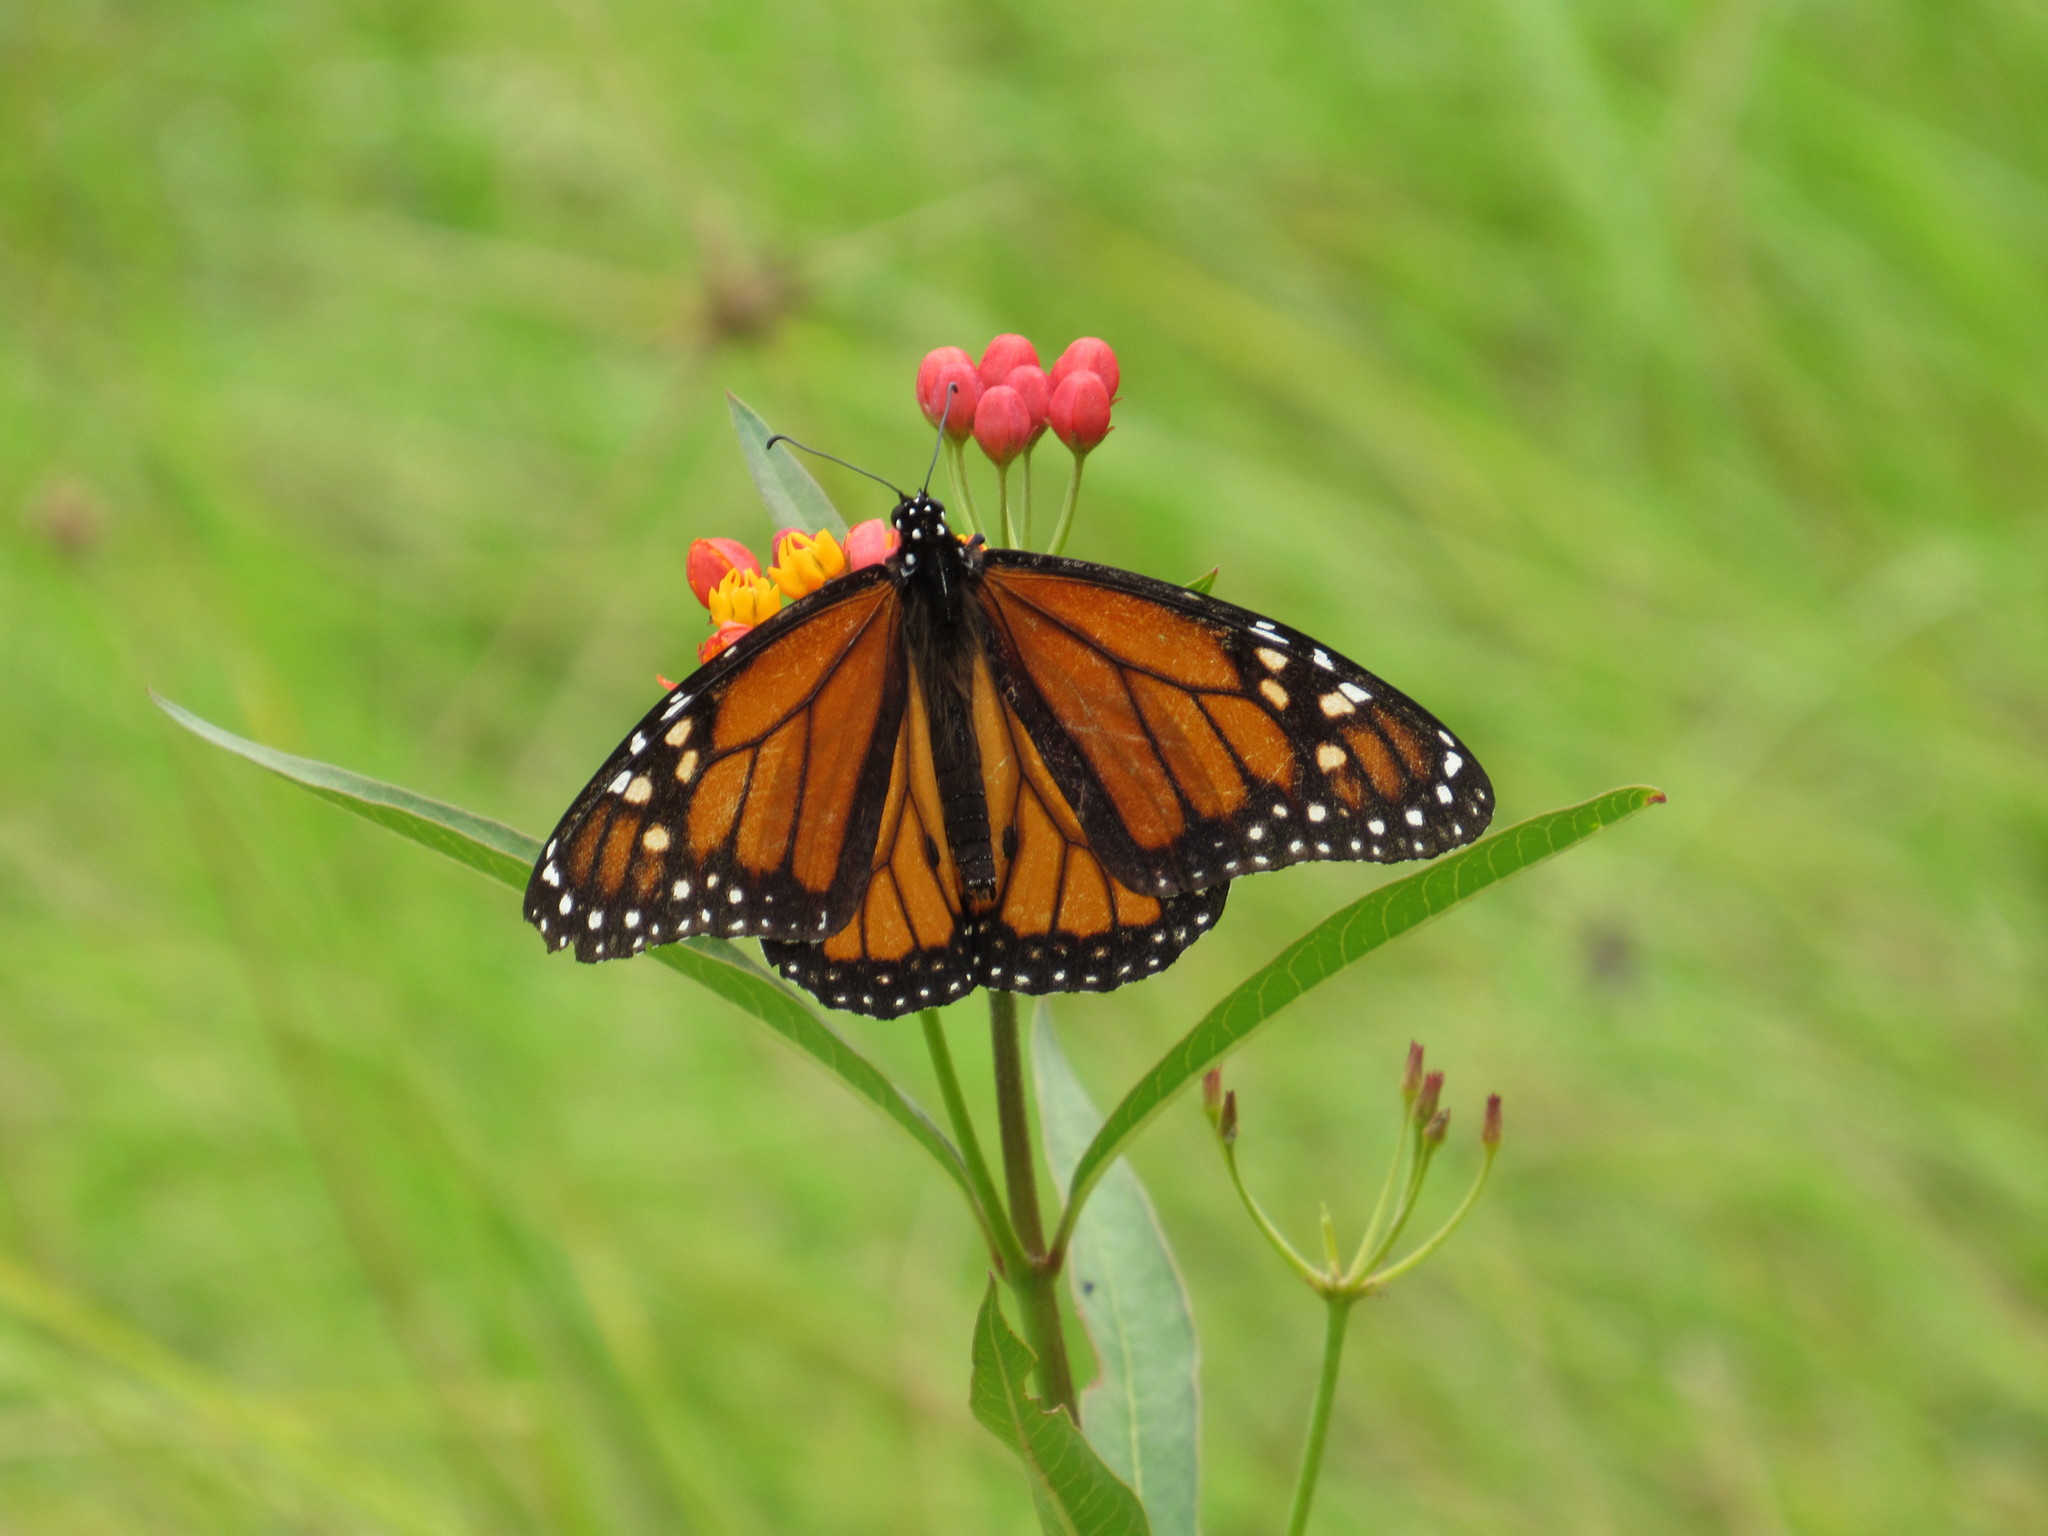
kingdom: Animalia
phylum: Arthropoda
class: Insecta
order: Lepidoptera
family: Nymphalidae
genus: Danaus
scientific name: Danaus plexippus
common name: Monarch
